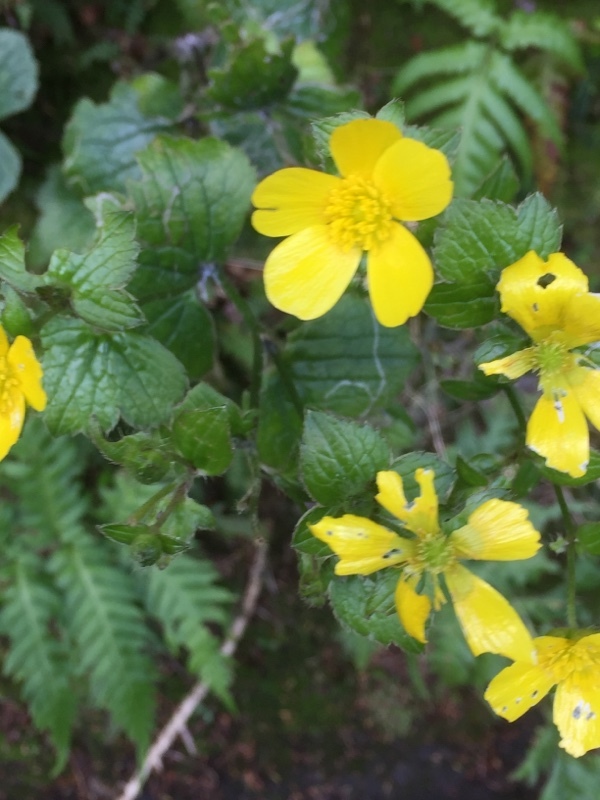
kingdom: Plantae
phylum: Tracheophyta
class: Magnoliopsida
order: Ranunculales
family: Ranunculaceae
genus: Ranunculus
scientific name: Ranunculus cortusifolius
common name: Azores buttercup
